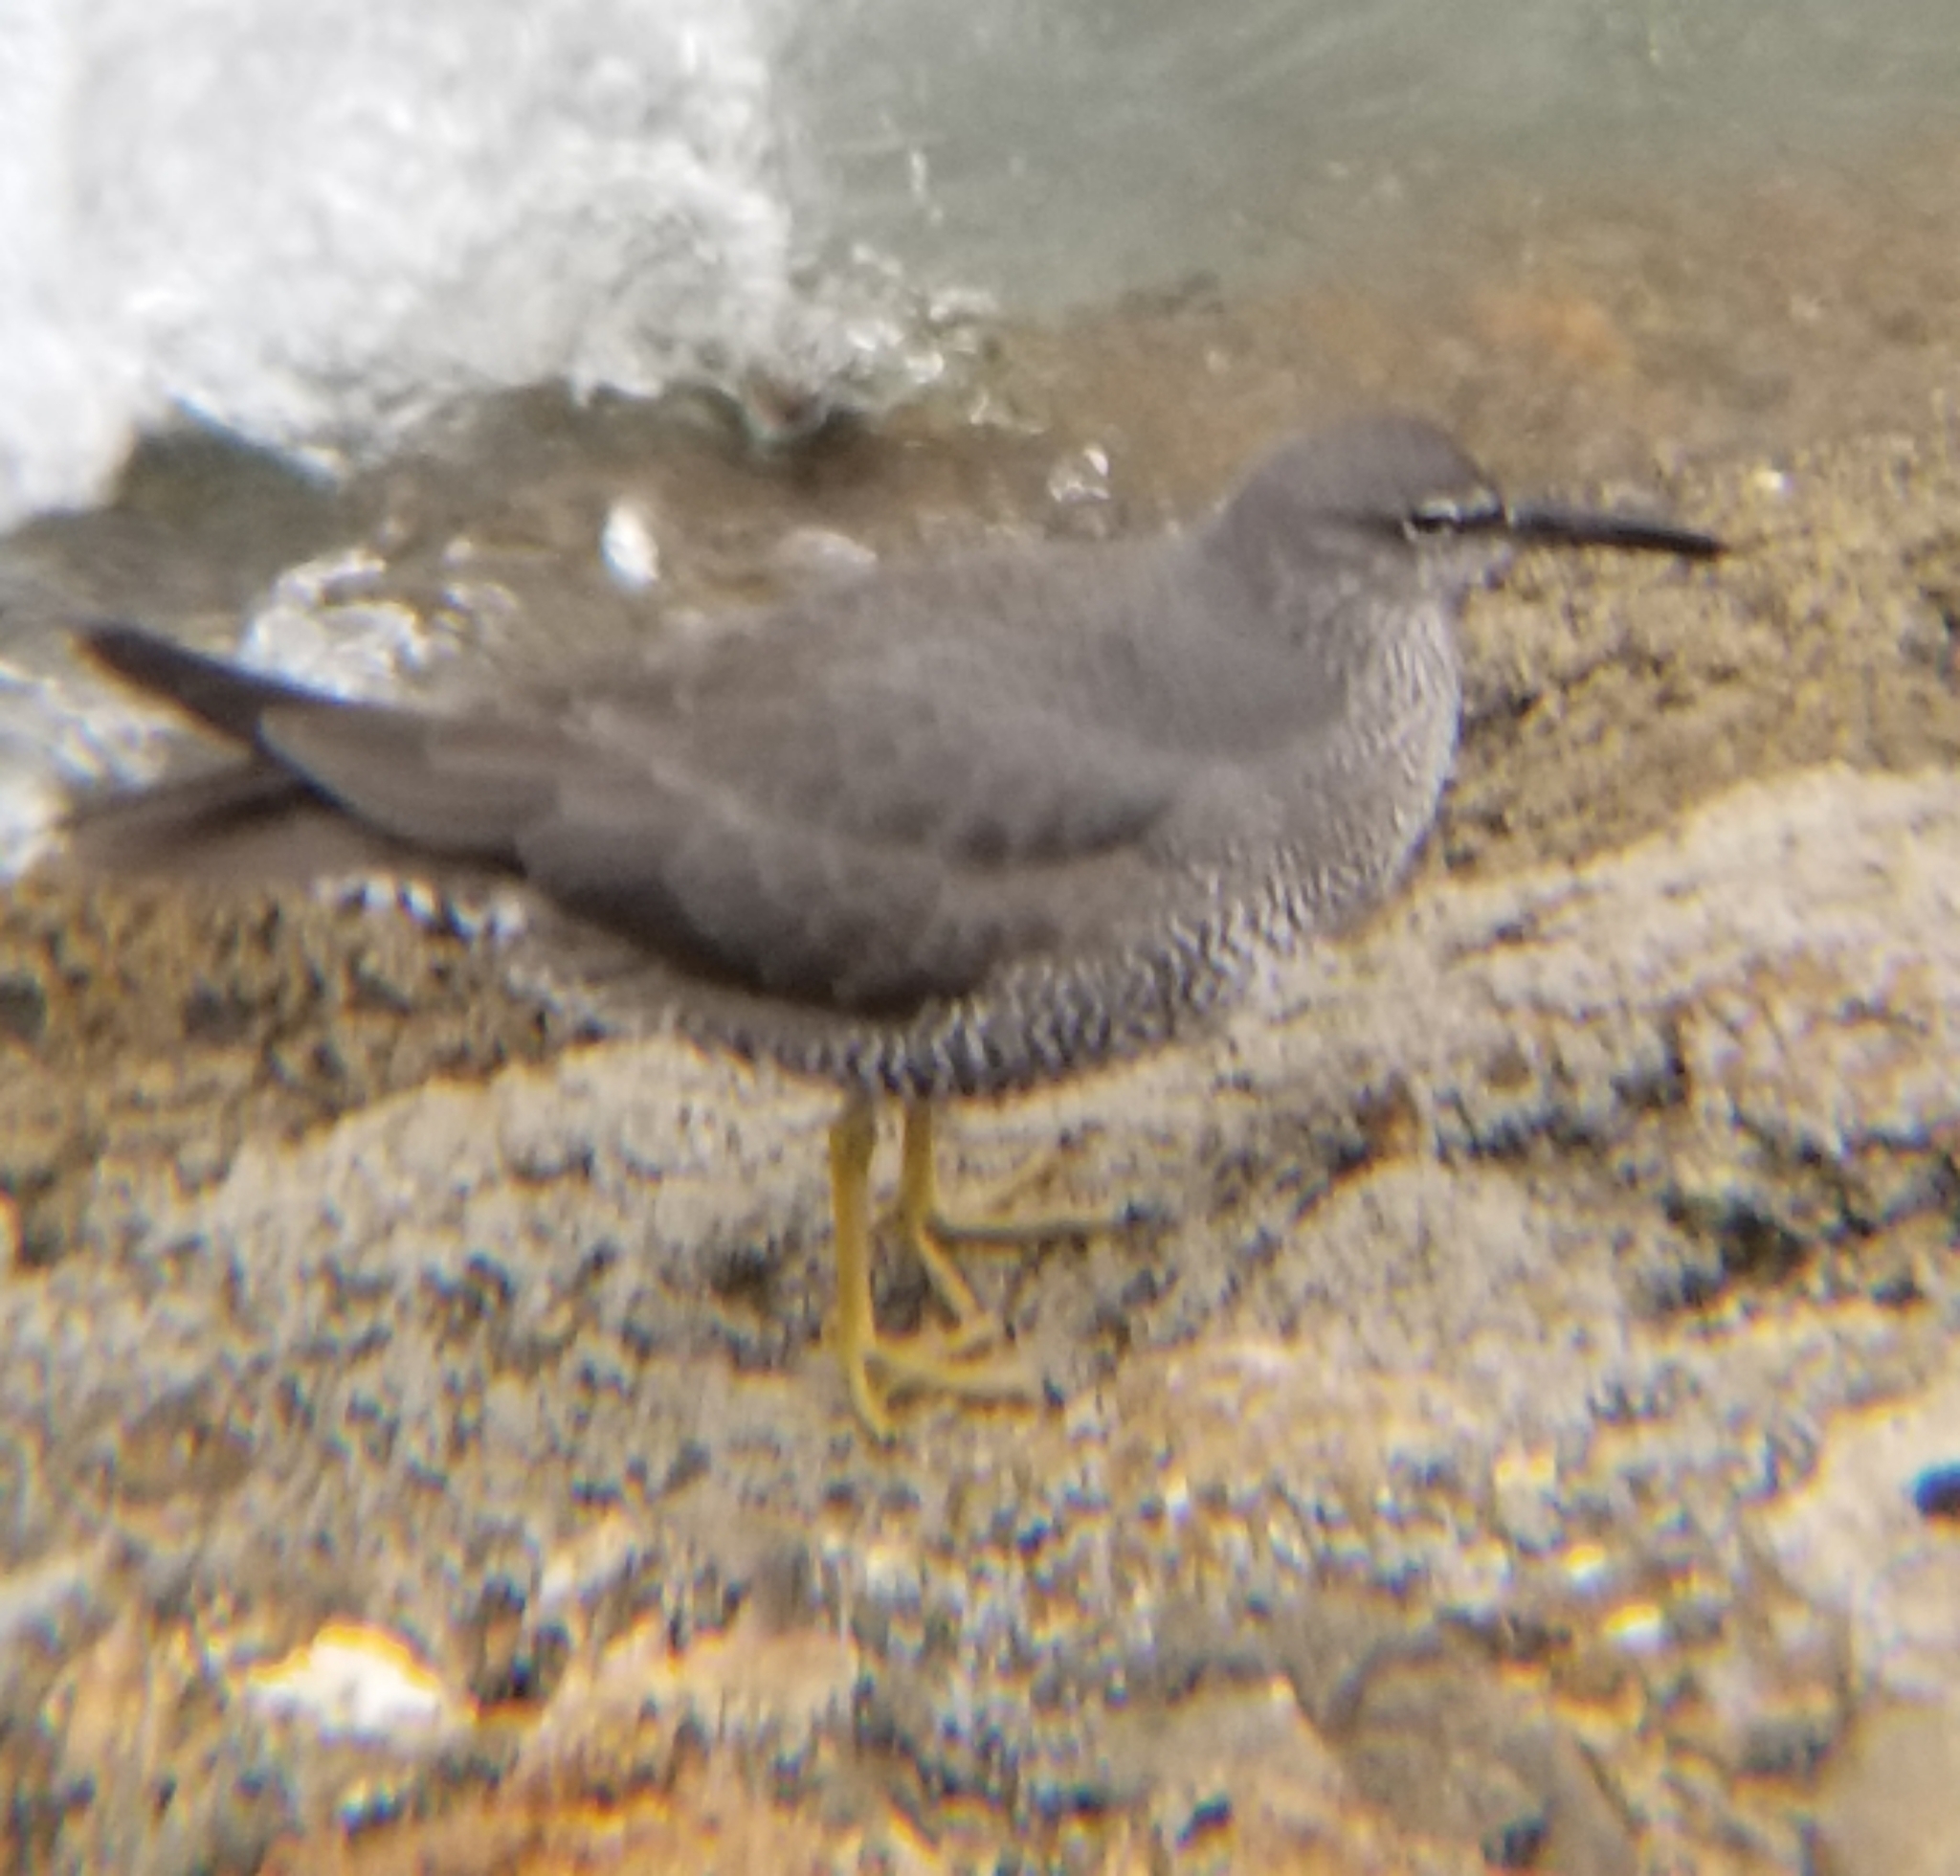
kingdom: Animalia
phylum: Chordata
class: Aves
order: Charadriiformes
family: Scolopacidae
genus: Tringa
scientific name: Tringa incana
